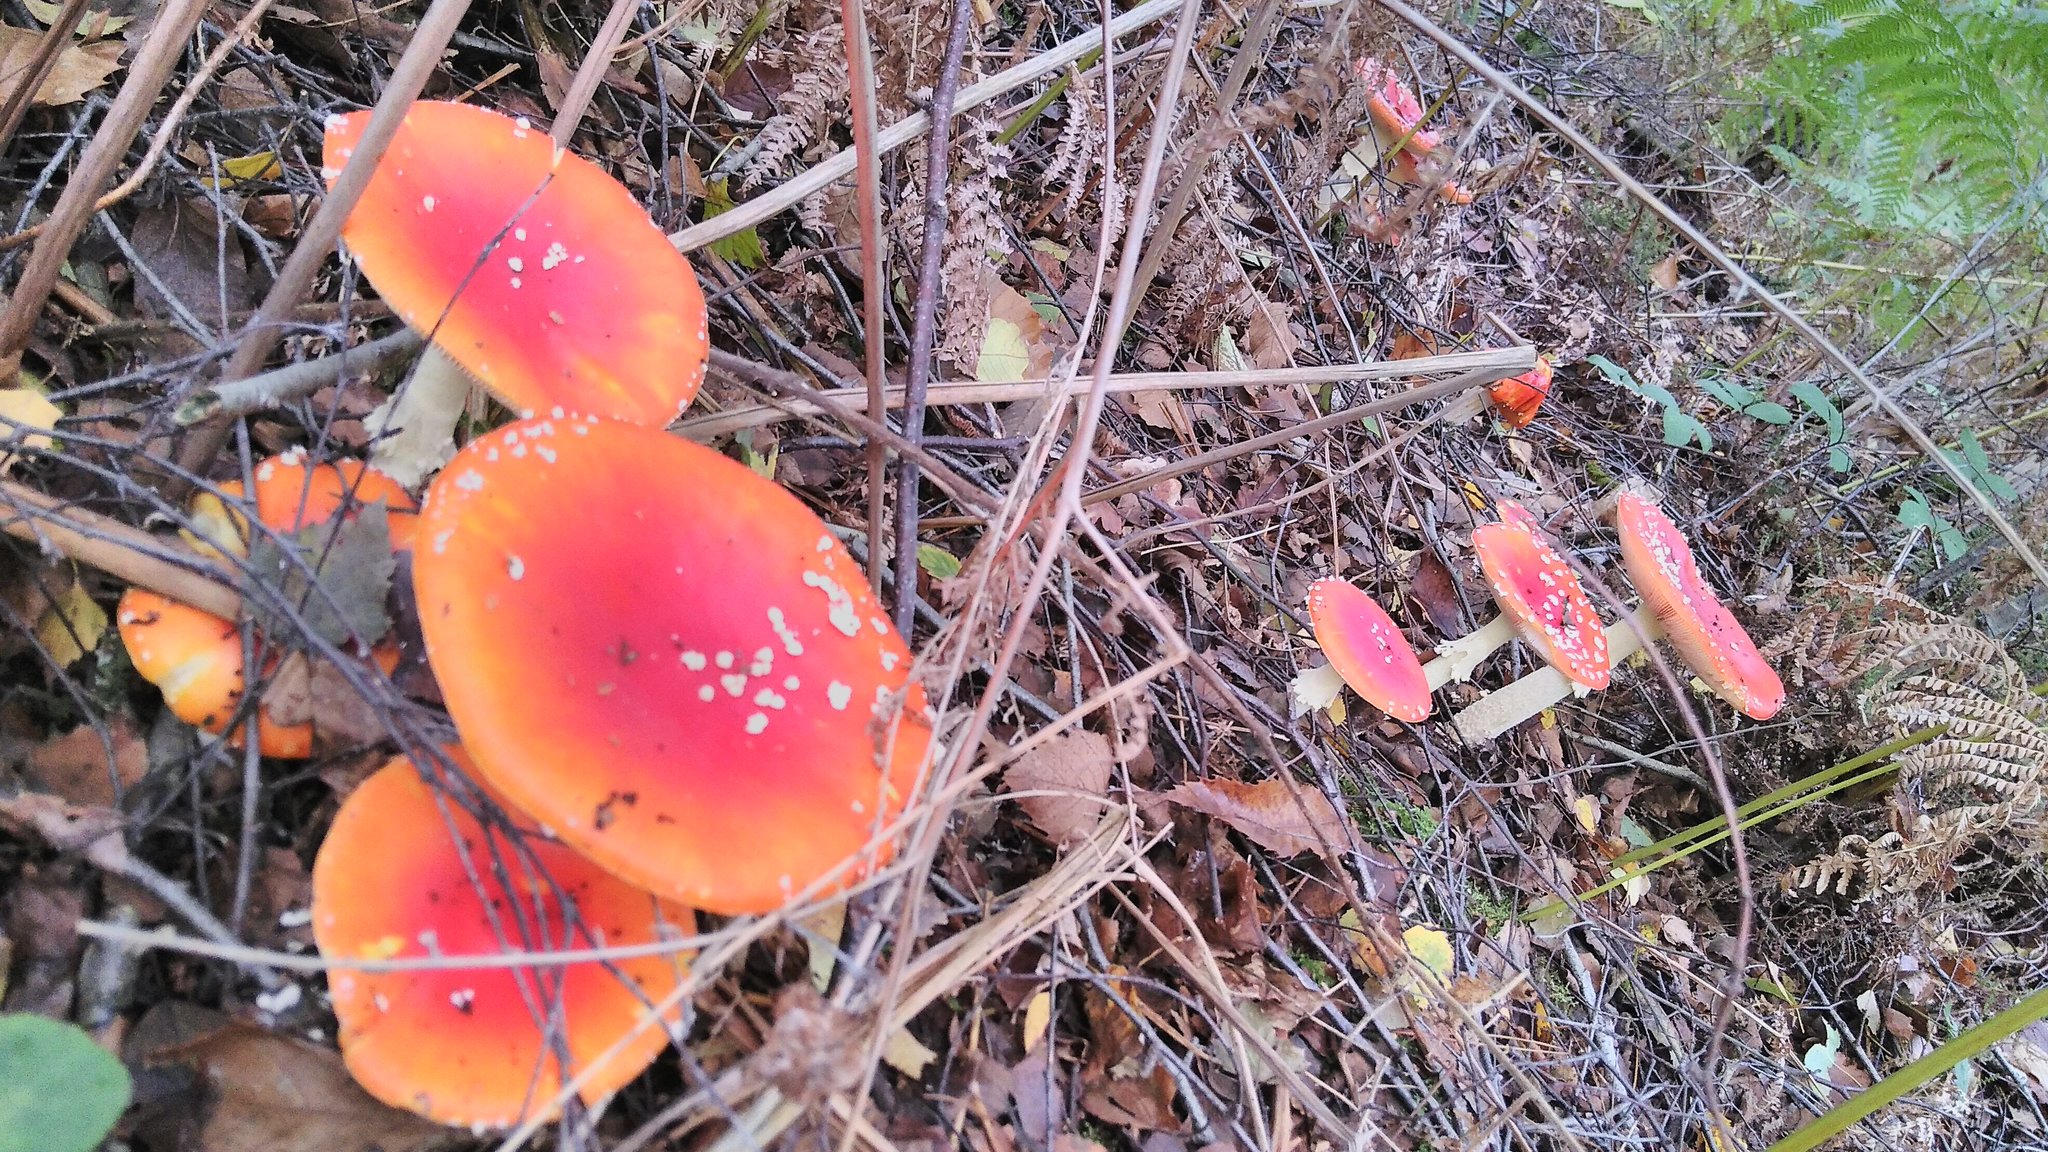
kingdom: Fungi
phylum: Basidiomycota
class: Agaricomycetes
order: Agaricales
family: Amanitaceae
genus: Amanita
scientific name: Amanita muscaria
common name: Fly agaric
